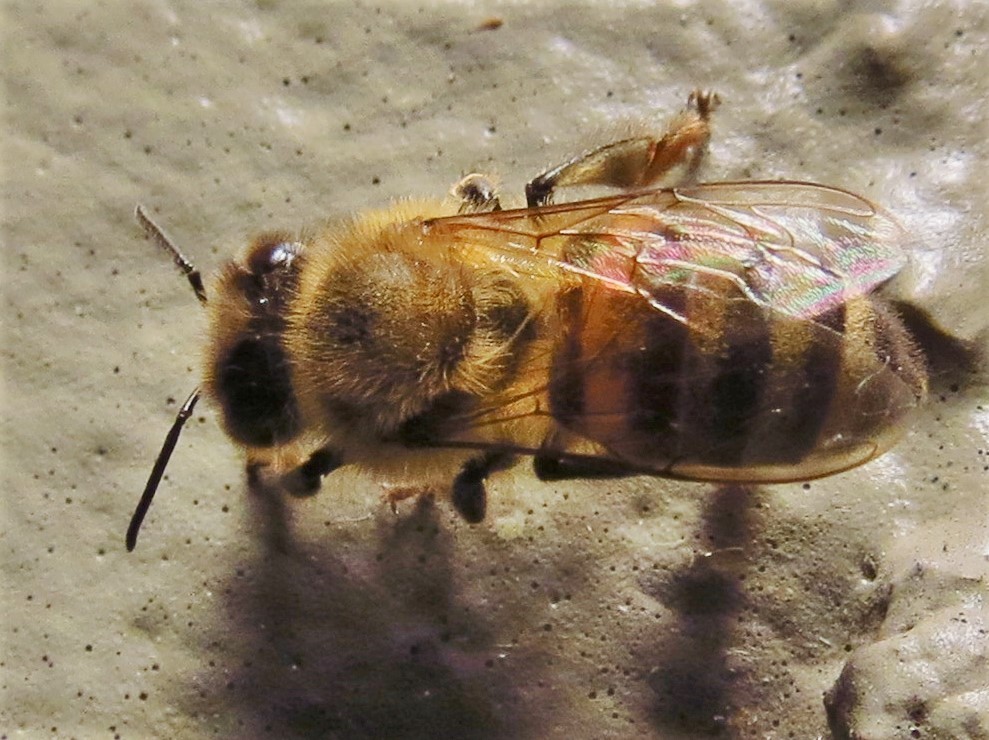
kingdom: Animalia
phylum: Arthropoda
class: Insecta
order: Hymenoptera
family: Apidae
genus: Apis
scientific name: Apis mellifera
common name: Honey bee
